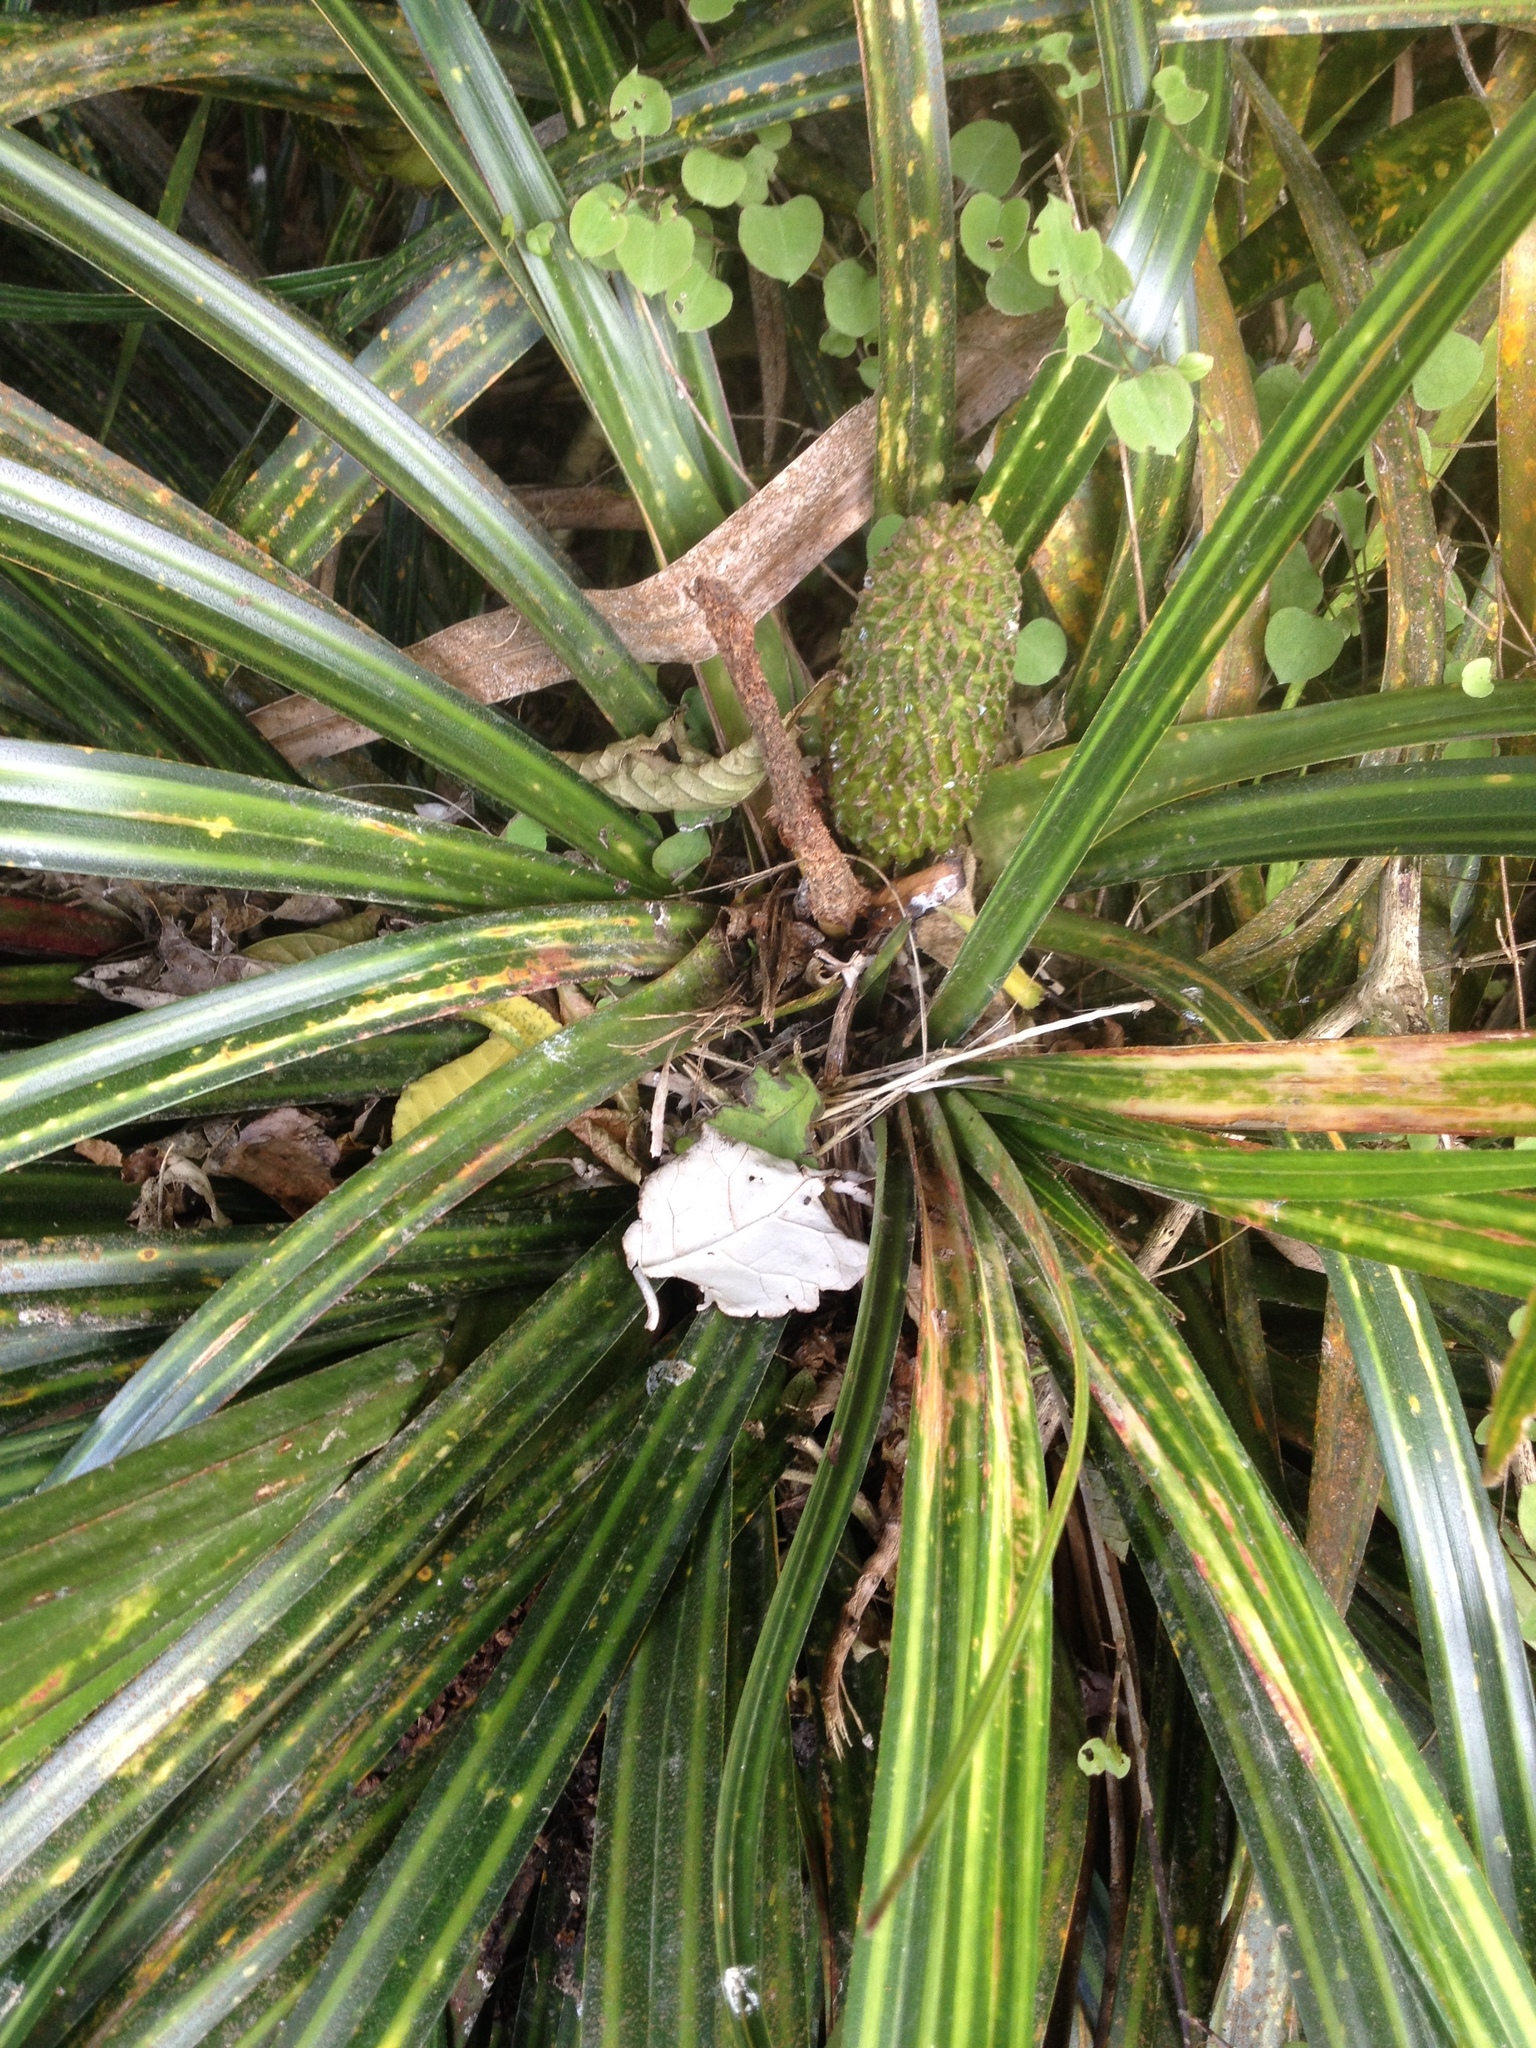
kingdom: Plantae
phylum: Tracheophyta
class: Liliopsida
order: Pandanales
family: Pandanaceae
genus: Freycinetia
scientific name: Freycinetia banksii
